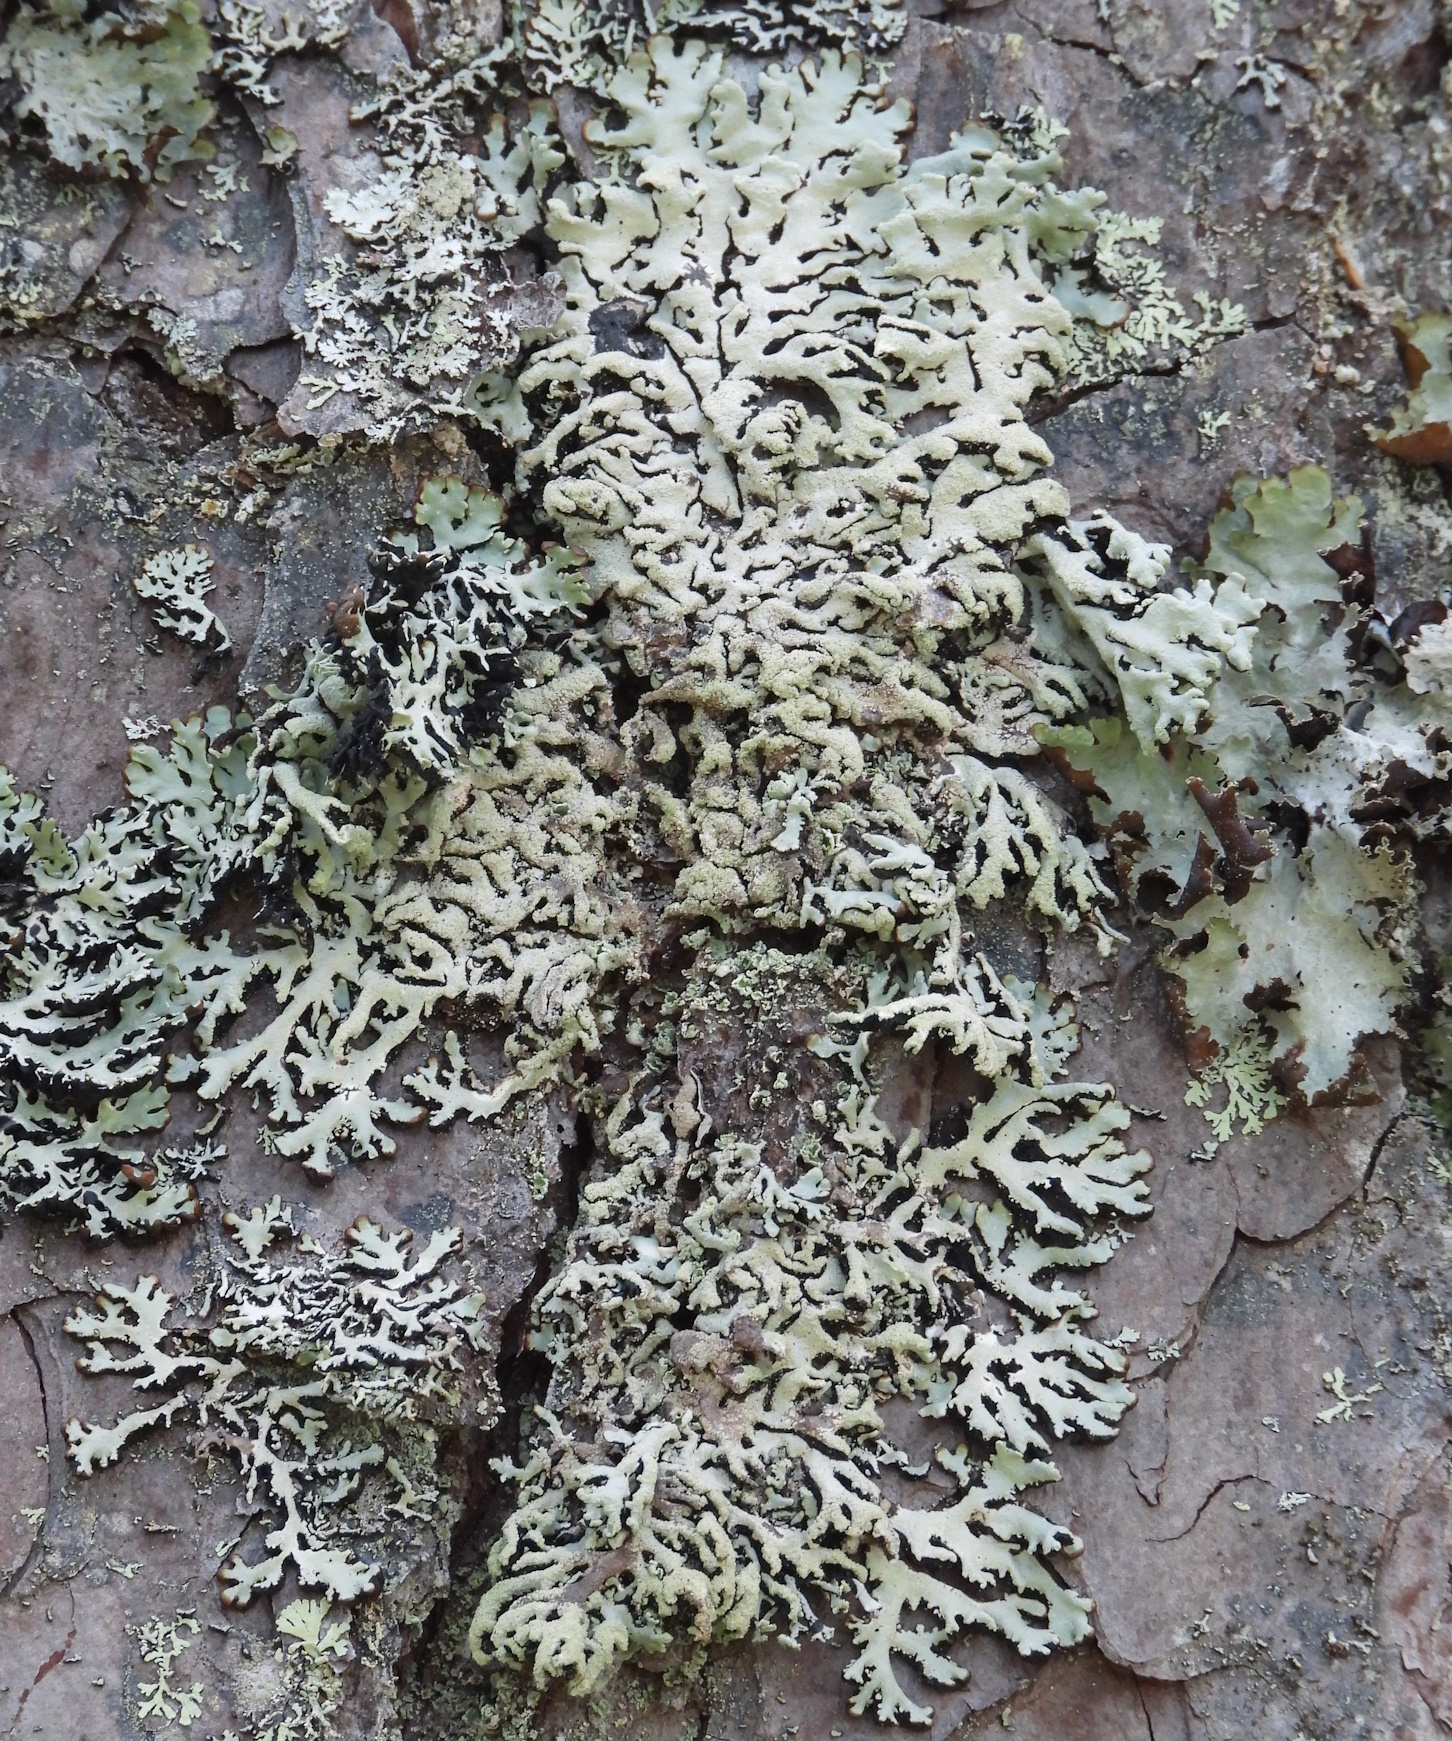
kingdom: Fungi
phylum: Ascomycota
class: Lecanoromycetes
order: Lecanorales
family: Parmeliaceae
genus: Hypogymnia
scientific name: Hypogymnia farinacea
